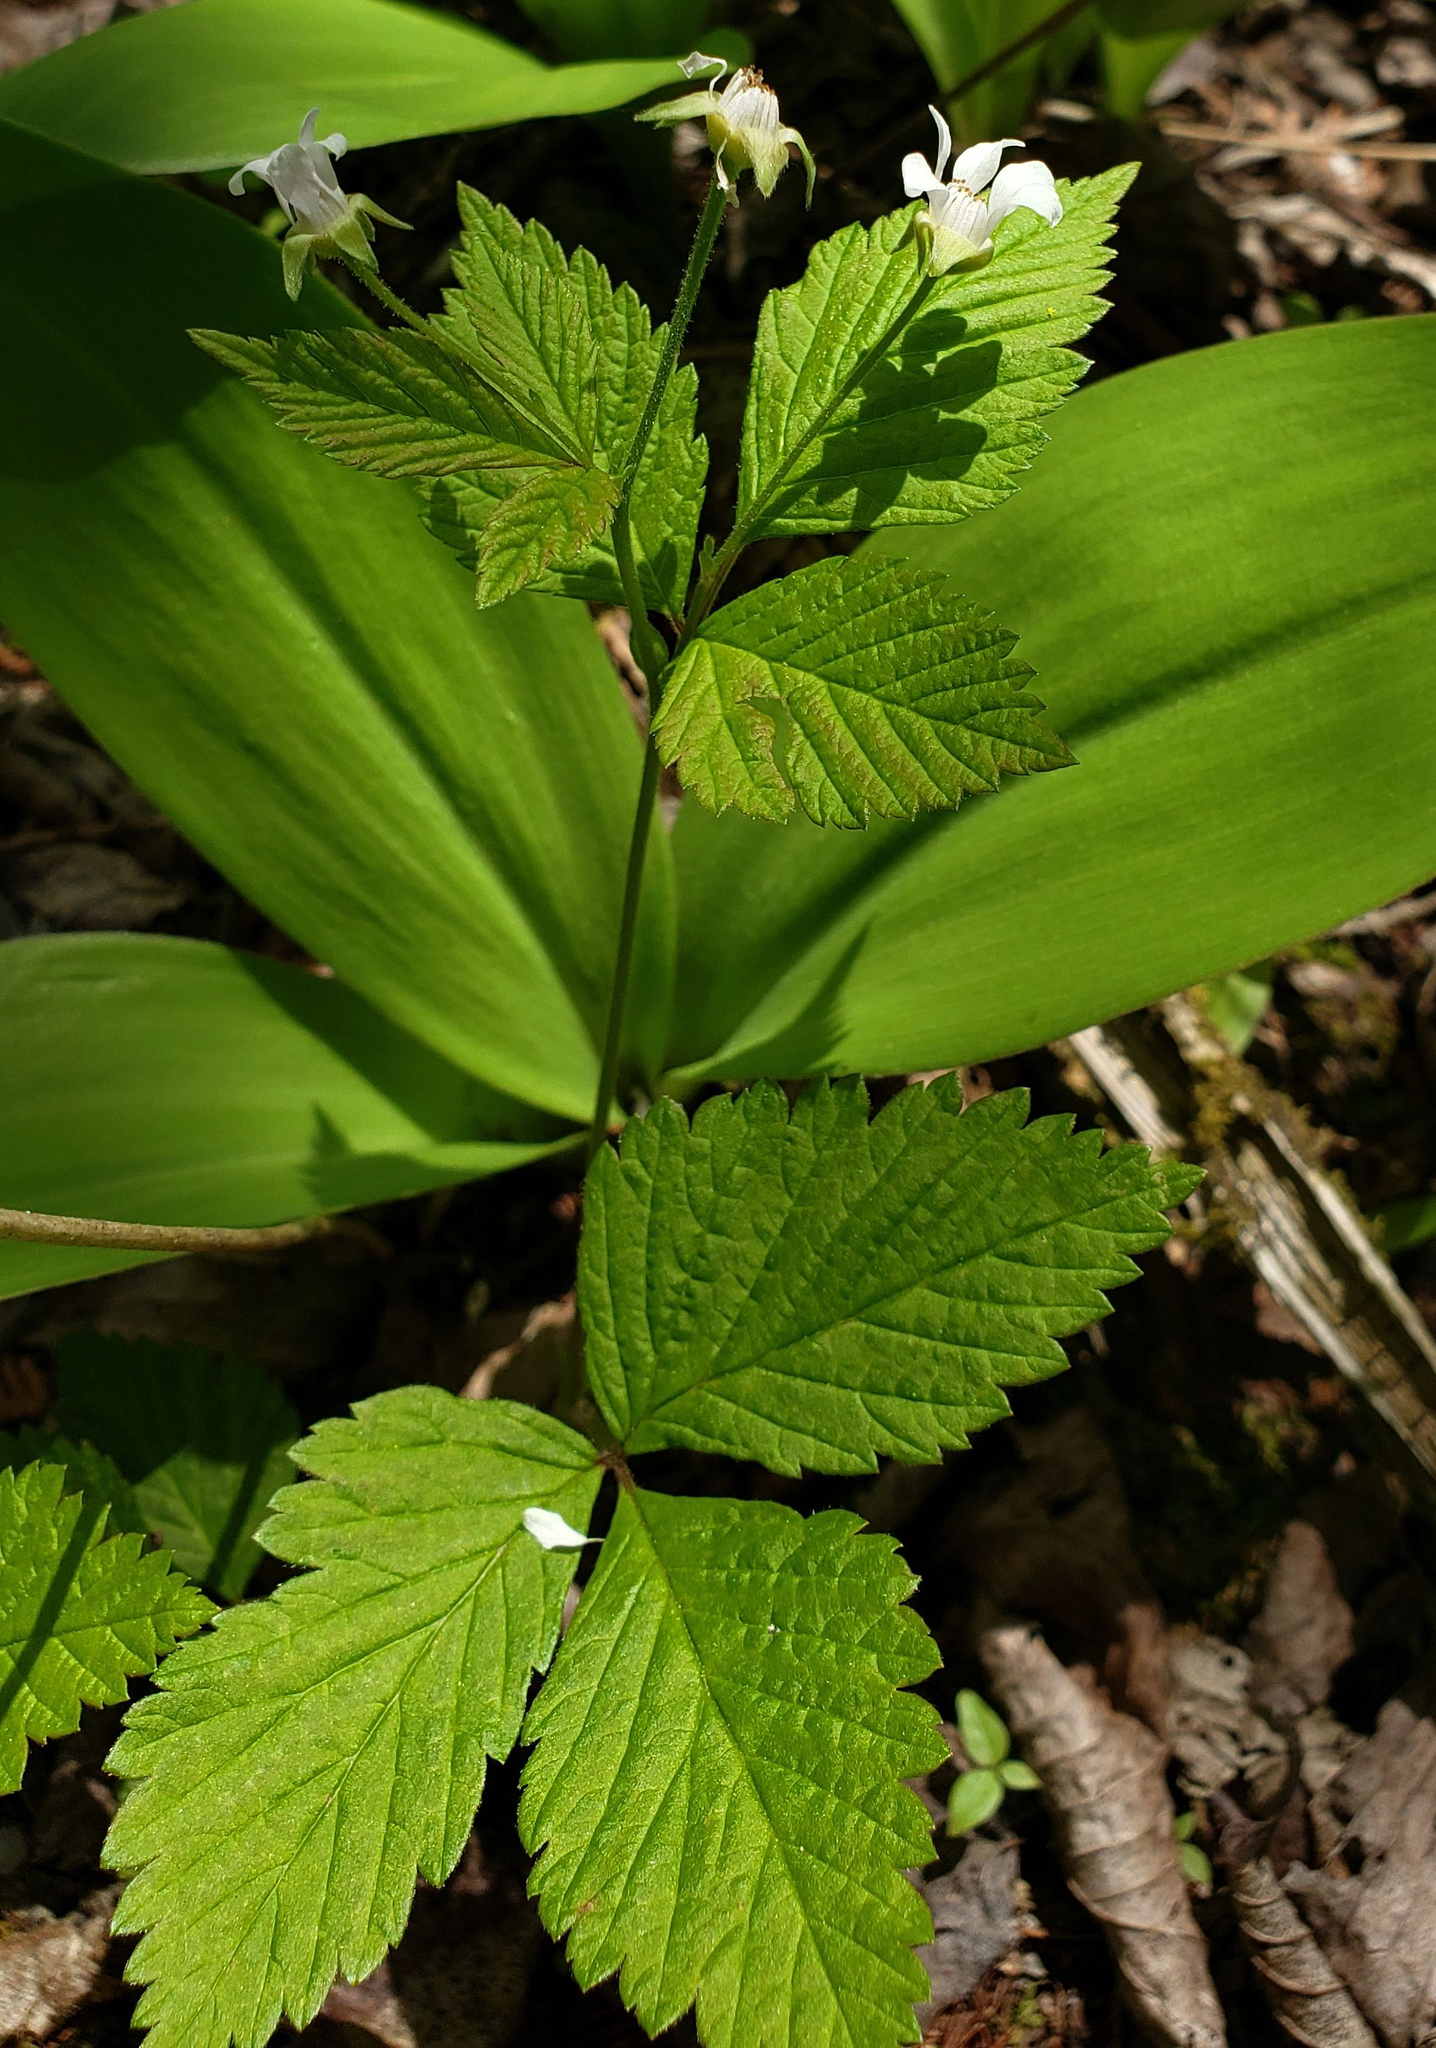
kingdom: Plantae
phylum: Tracheophyta
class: Magnoliopsida
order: Rosales
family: Rosaceae
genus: Rubus
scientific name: Rubus pubescens
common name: Dwarf raspberry
